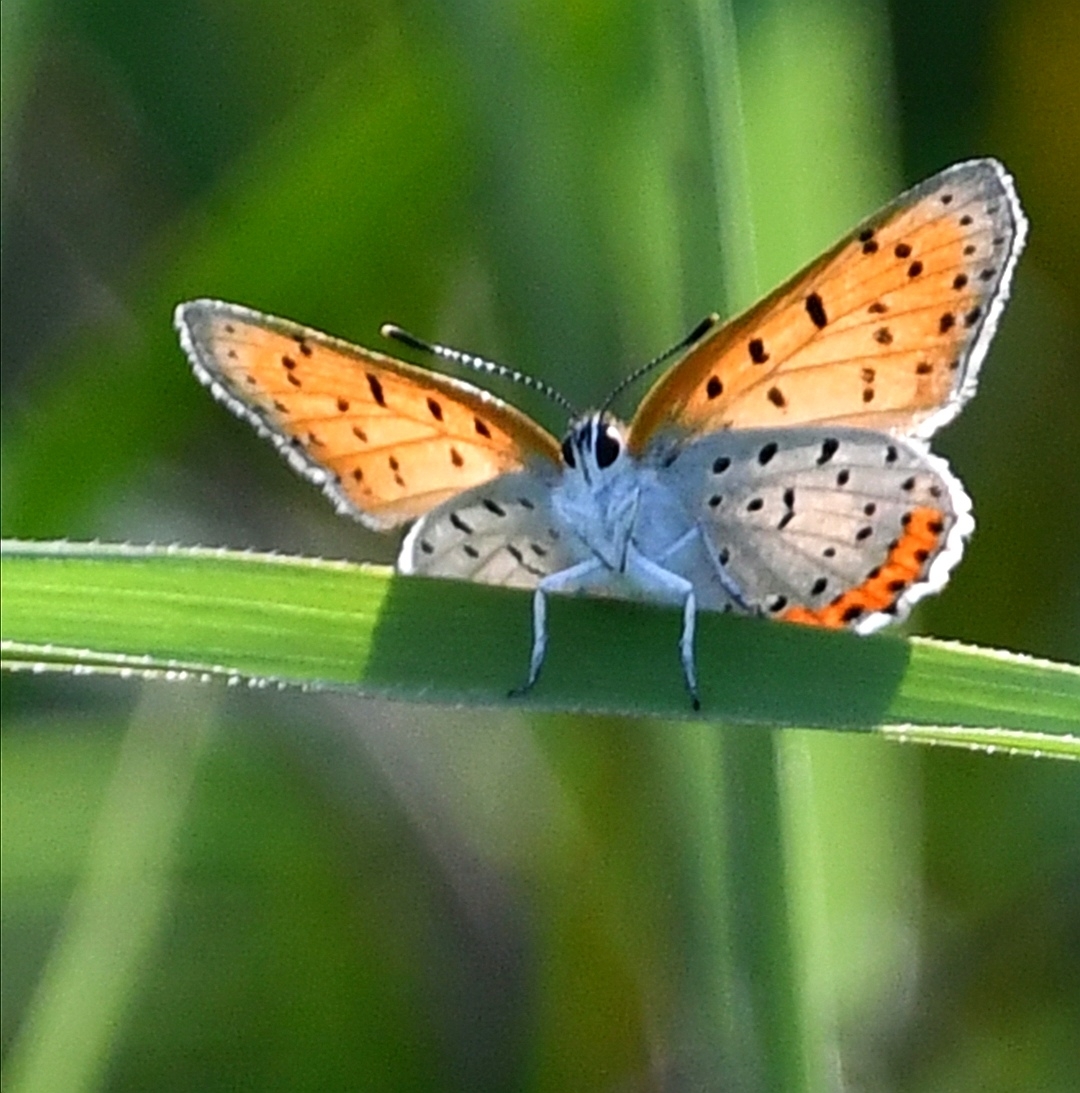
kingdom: Animalia
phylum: Arthropoda
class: Insecta
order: Lepidoptera
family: Lycaenidae
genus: Tharsalea
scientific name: Tharsalea hyllus
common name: Bronze copper
